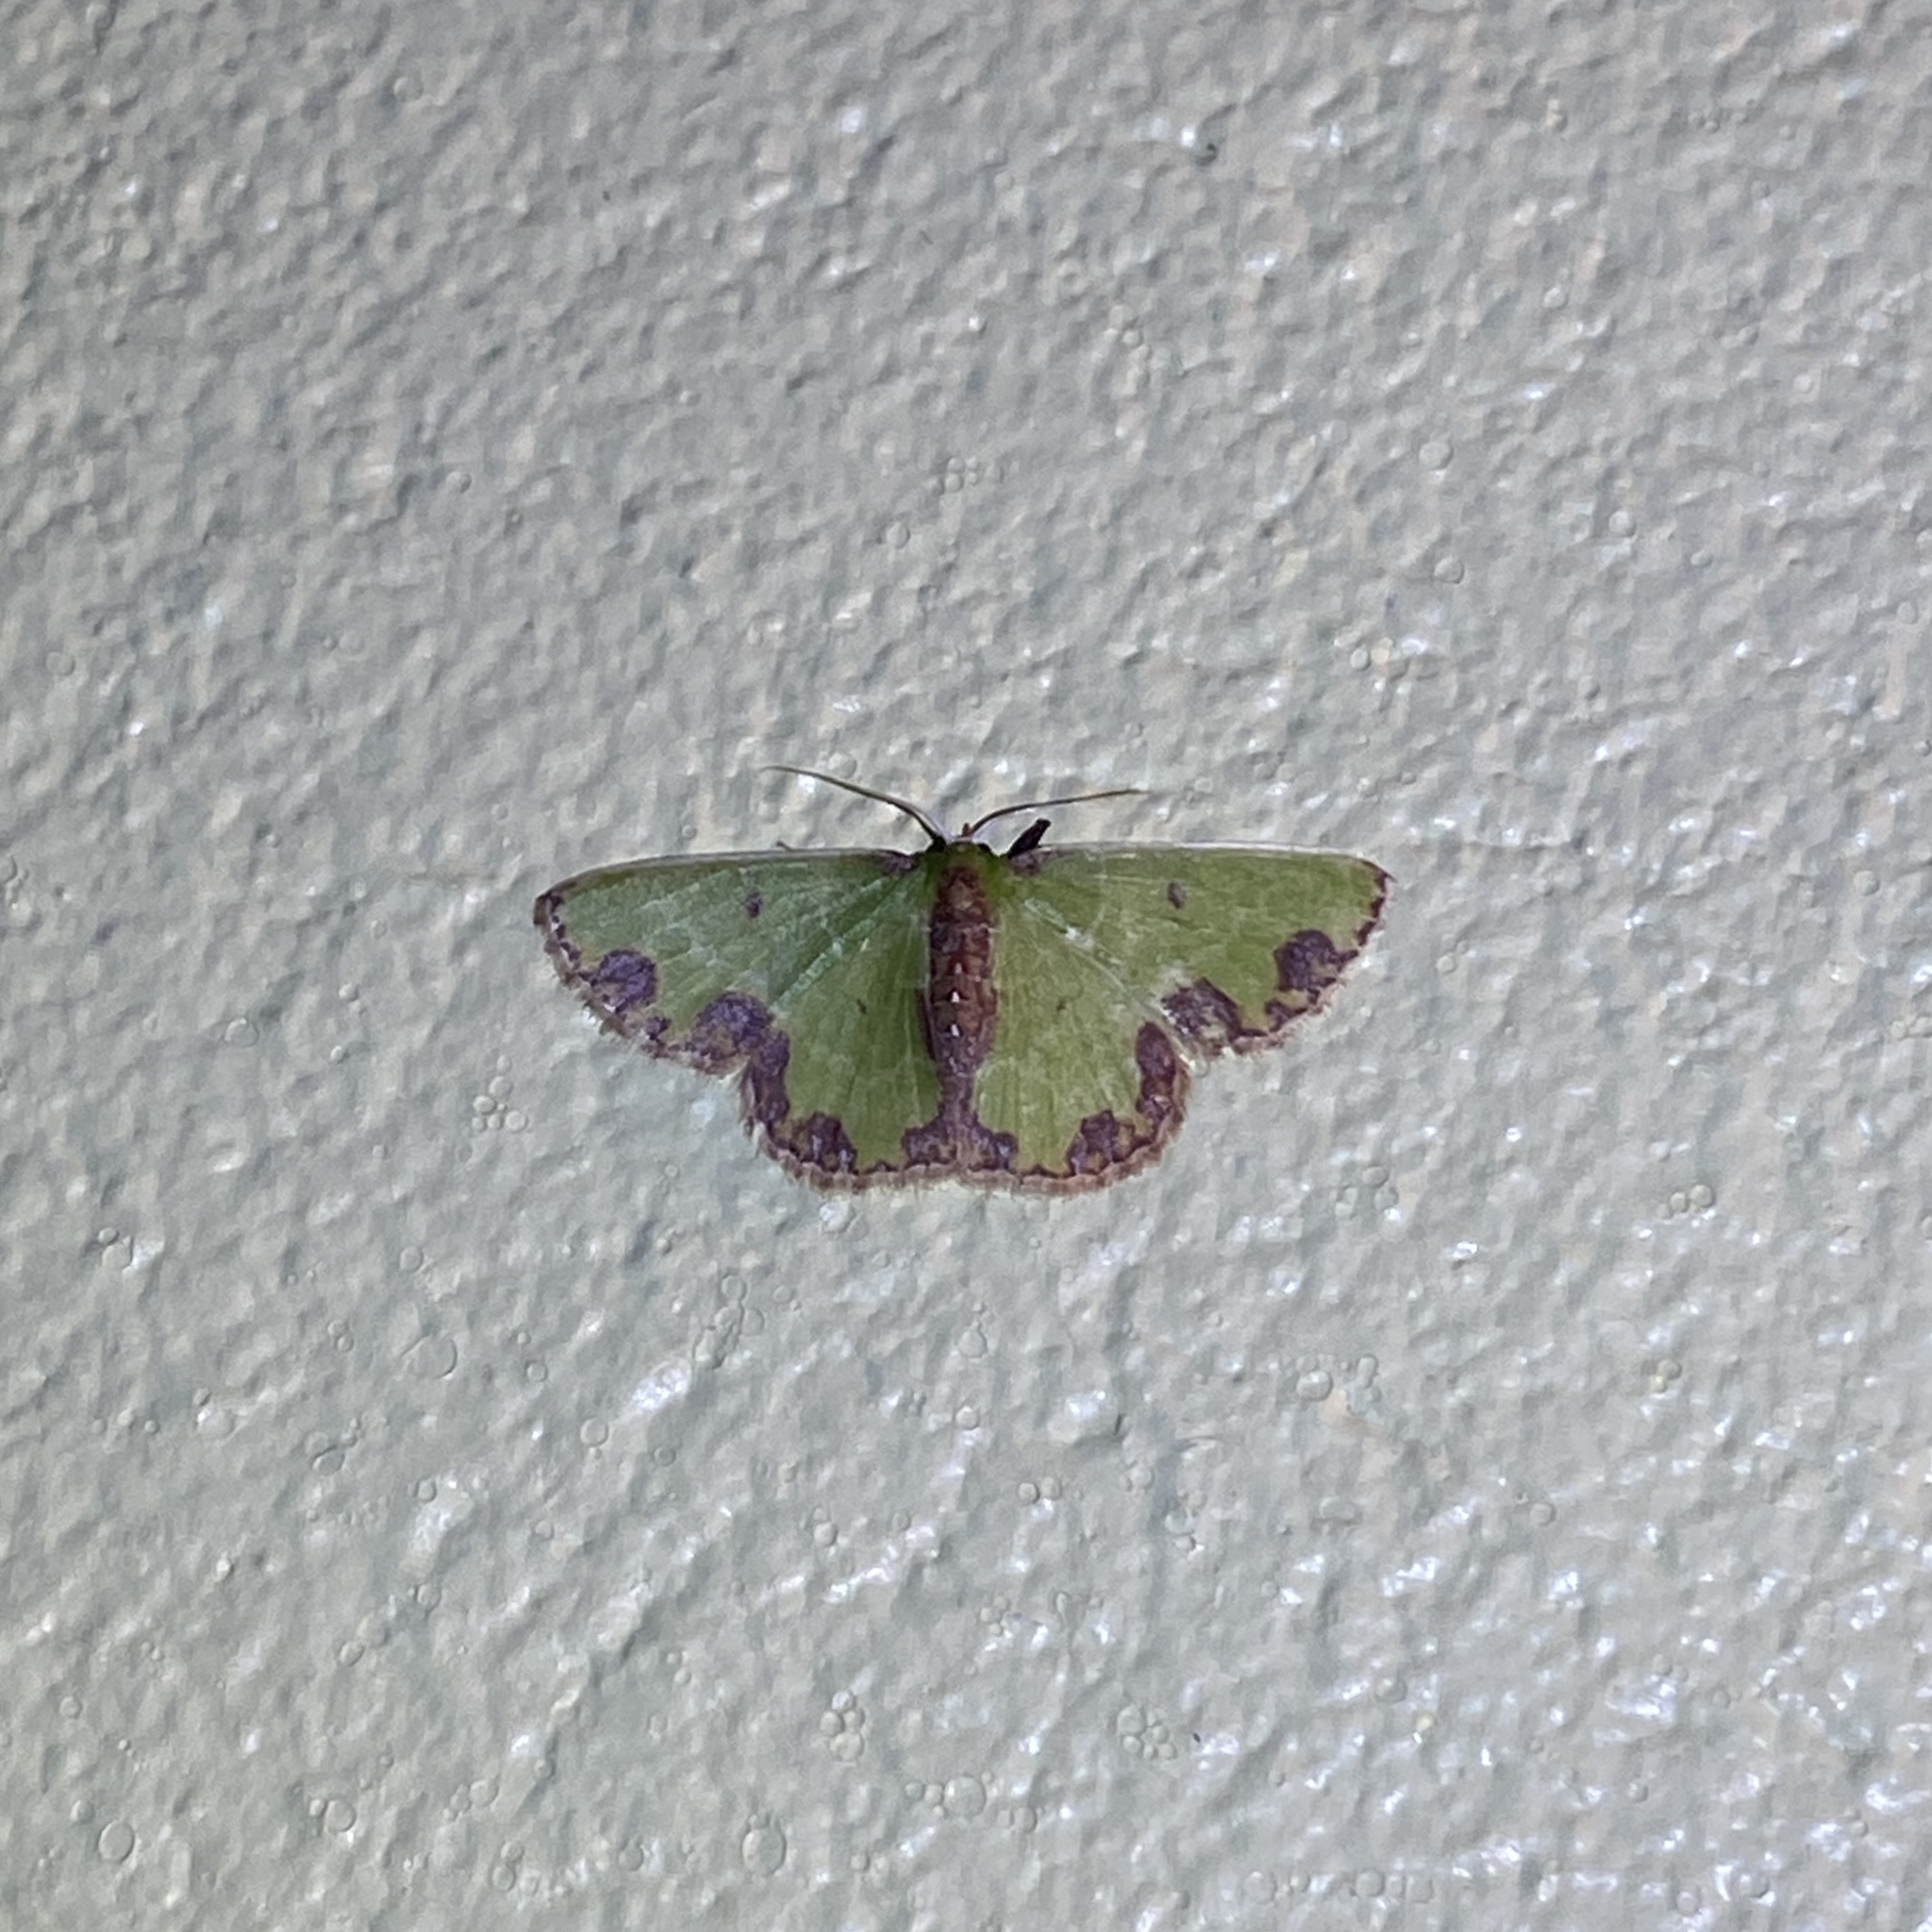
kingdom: Animalia
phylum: Arthropoda
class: Insecta
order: Lepidoptera
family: Geometridae
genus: Synchlora
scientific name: Synchlora gerularia
